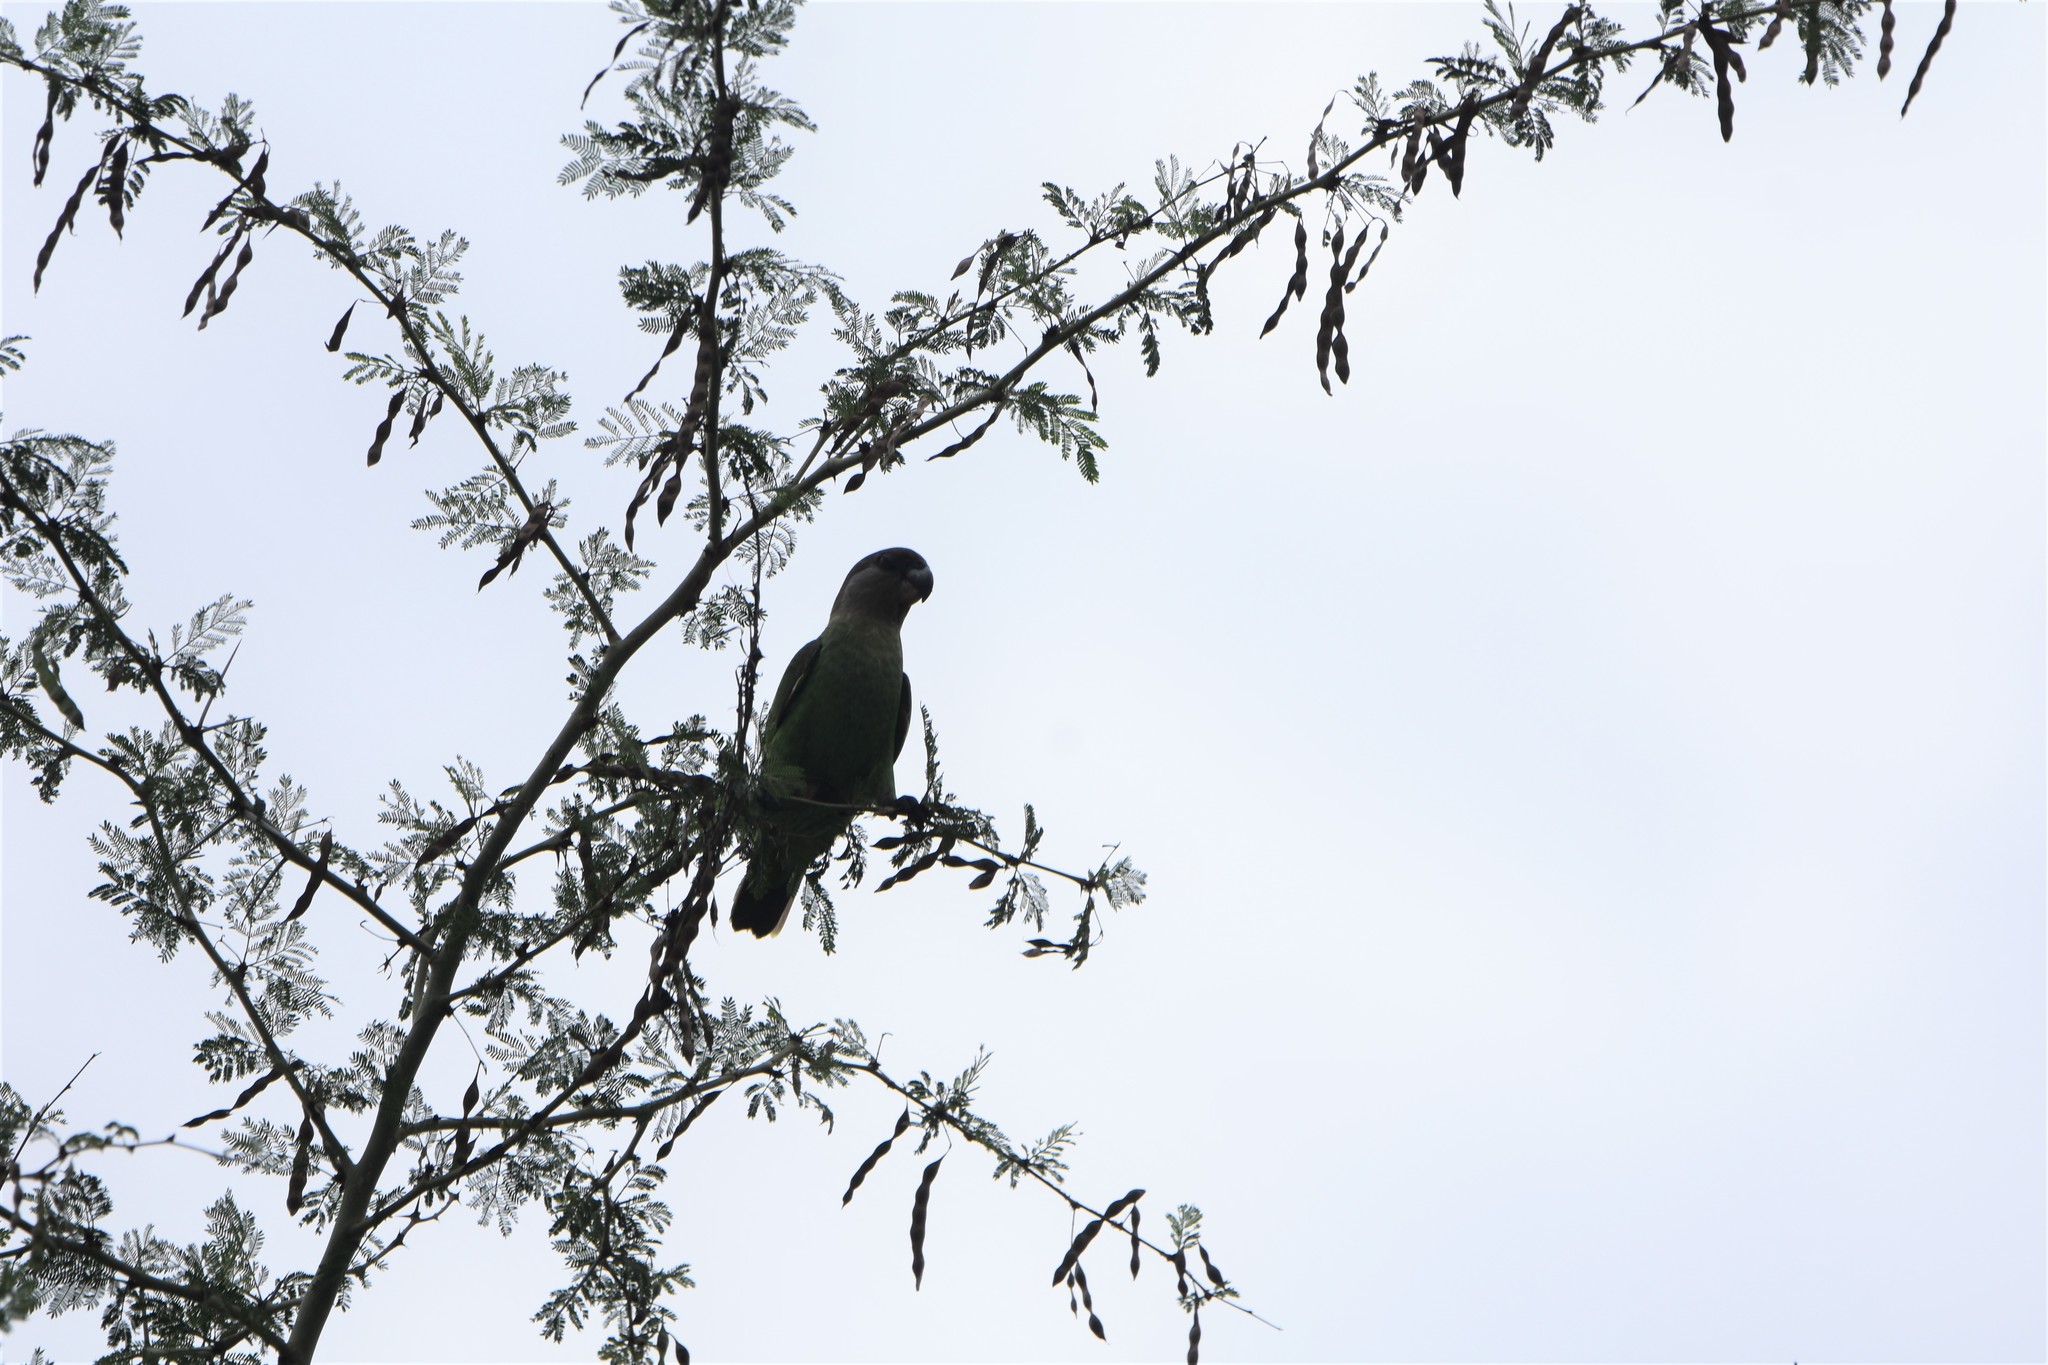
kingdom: Animalia
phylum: Chordata
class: Aves
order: Psittaciformes
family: Psittacidae
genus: Poicephalus
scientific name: Poicephalus cryptoxanthus
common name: Brown-headed parrot
